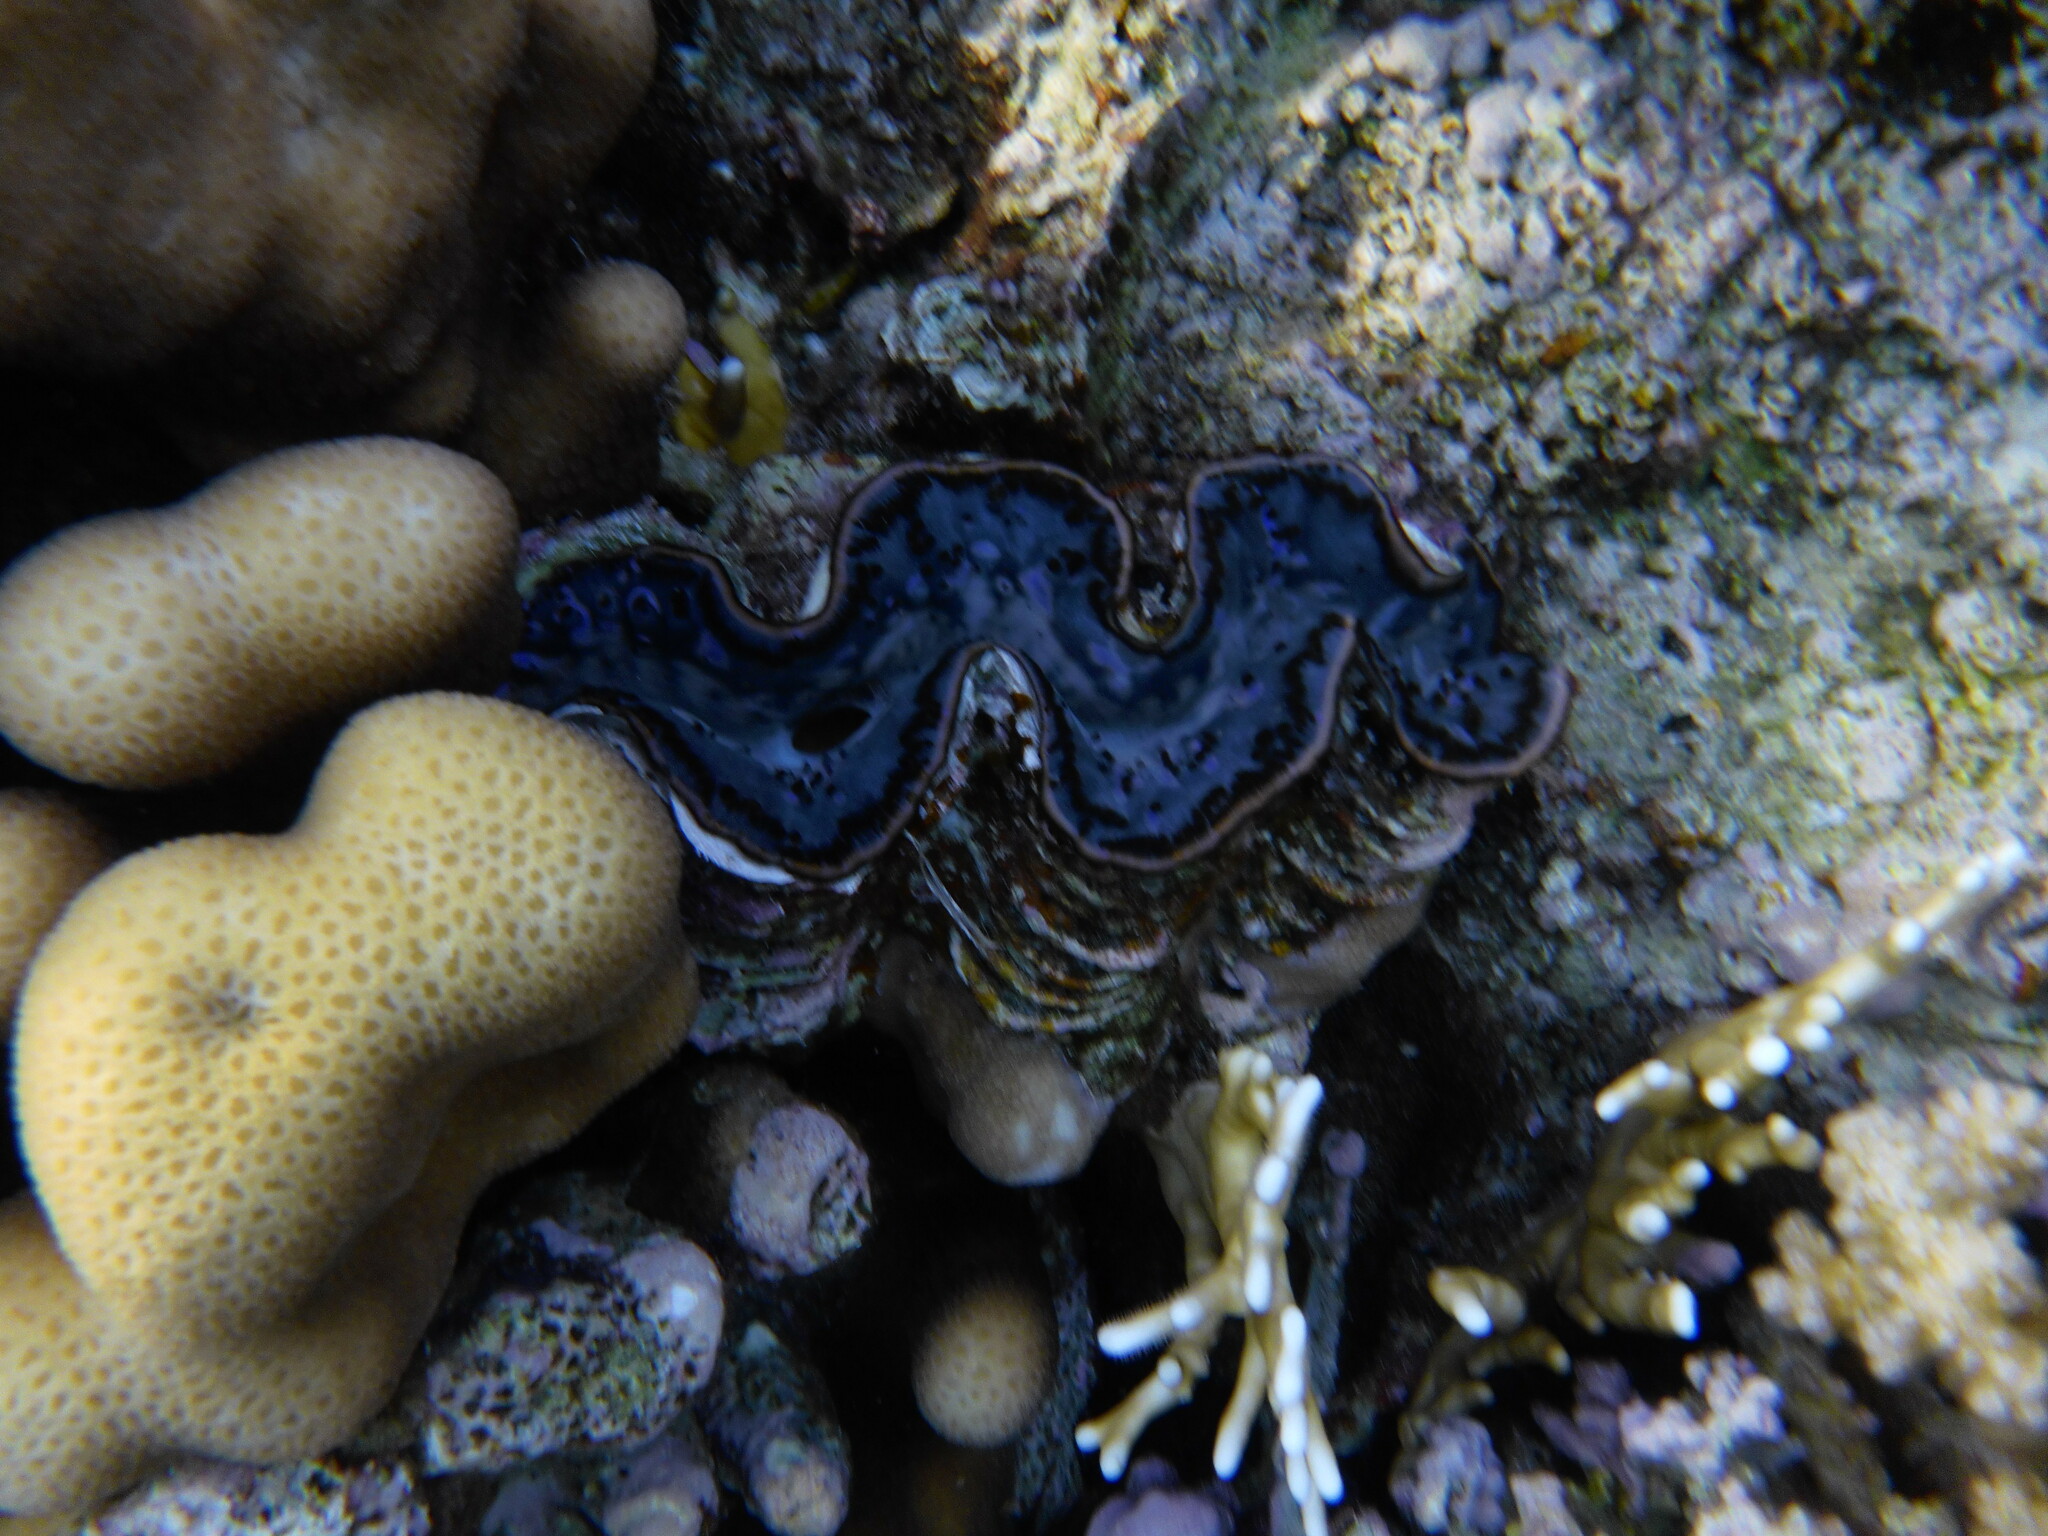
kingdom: Animalia
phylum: Mollusca
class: Bivalvia
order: Cardiida
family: Cardiidae
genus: Tridacna
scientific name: Tridacna maxima
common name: Small giant clam
